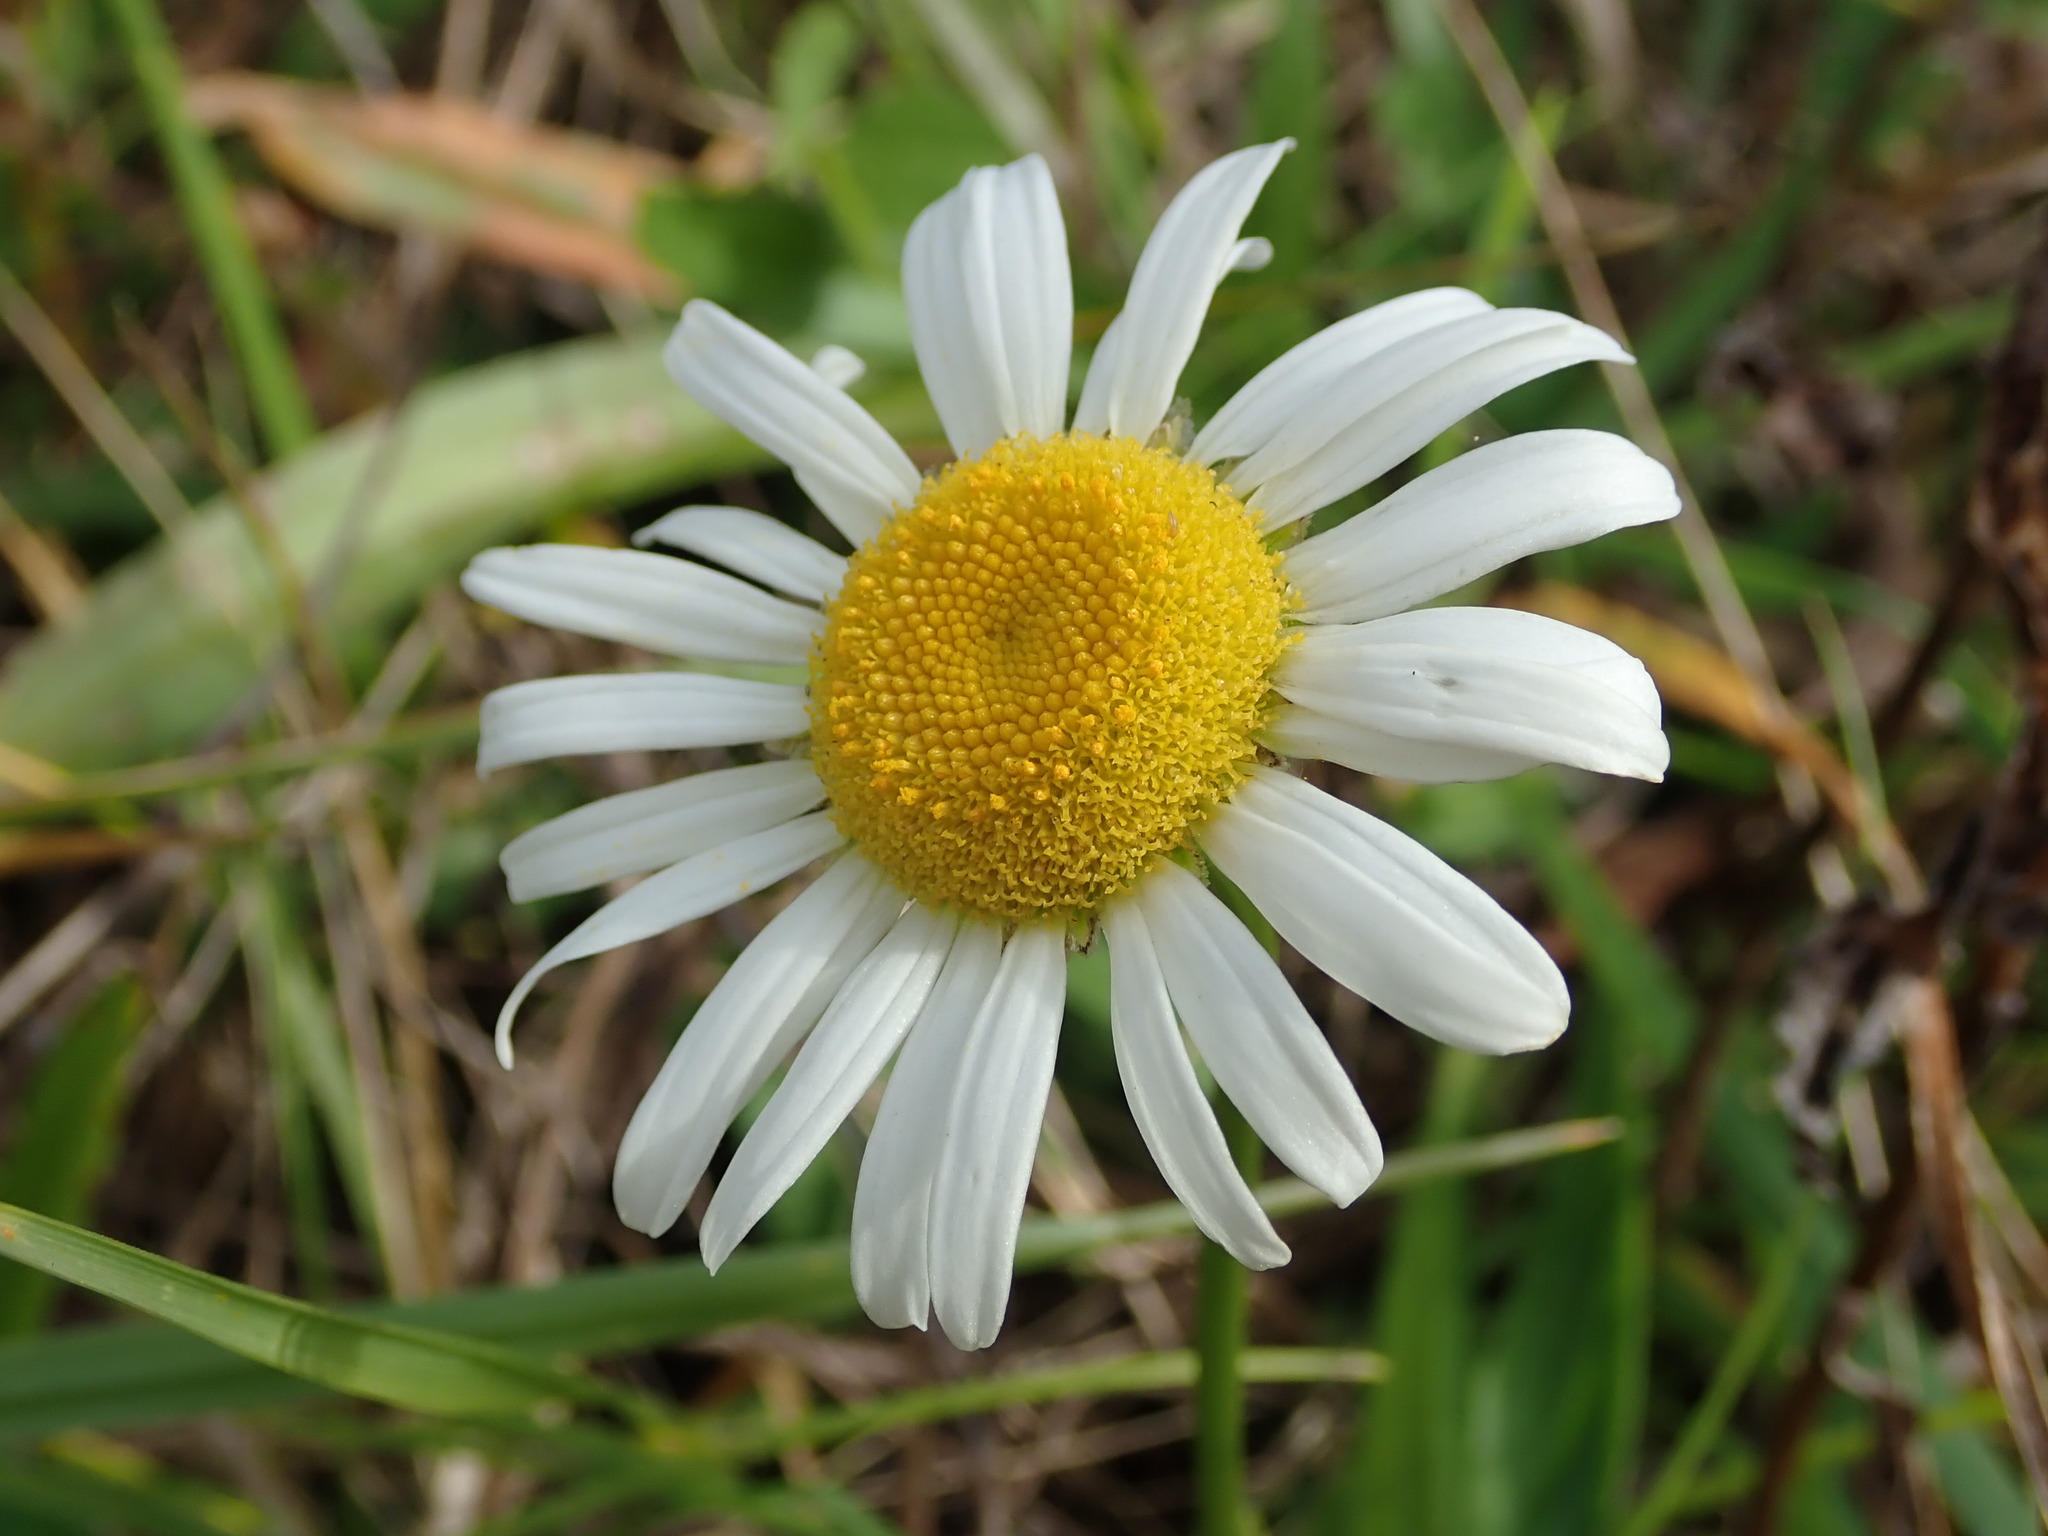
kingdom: Plantae
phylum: Tracheophyta
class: Magnoliopsida
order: Asterales
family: Asteraceae
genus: Leucanthemum
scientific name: Leucanthemum vulgare
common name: Oxeye daisy
